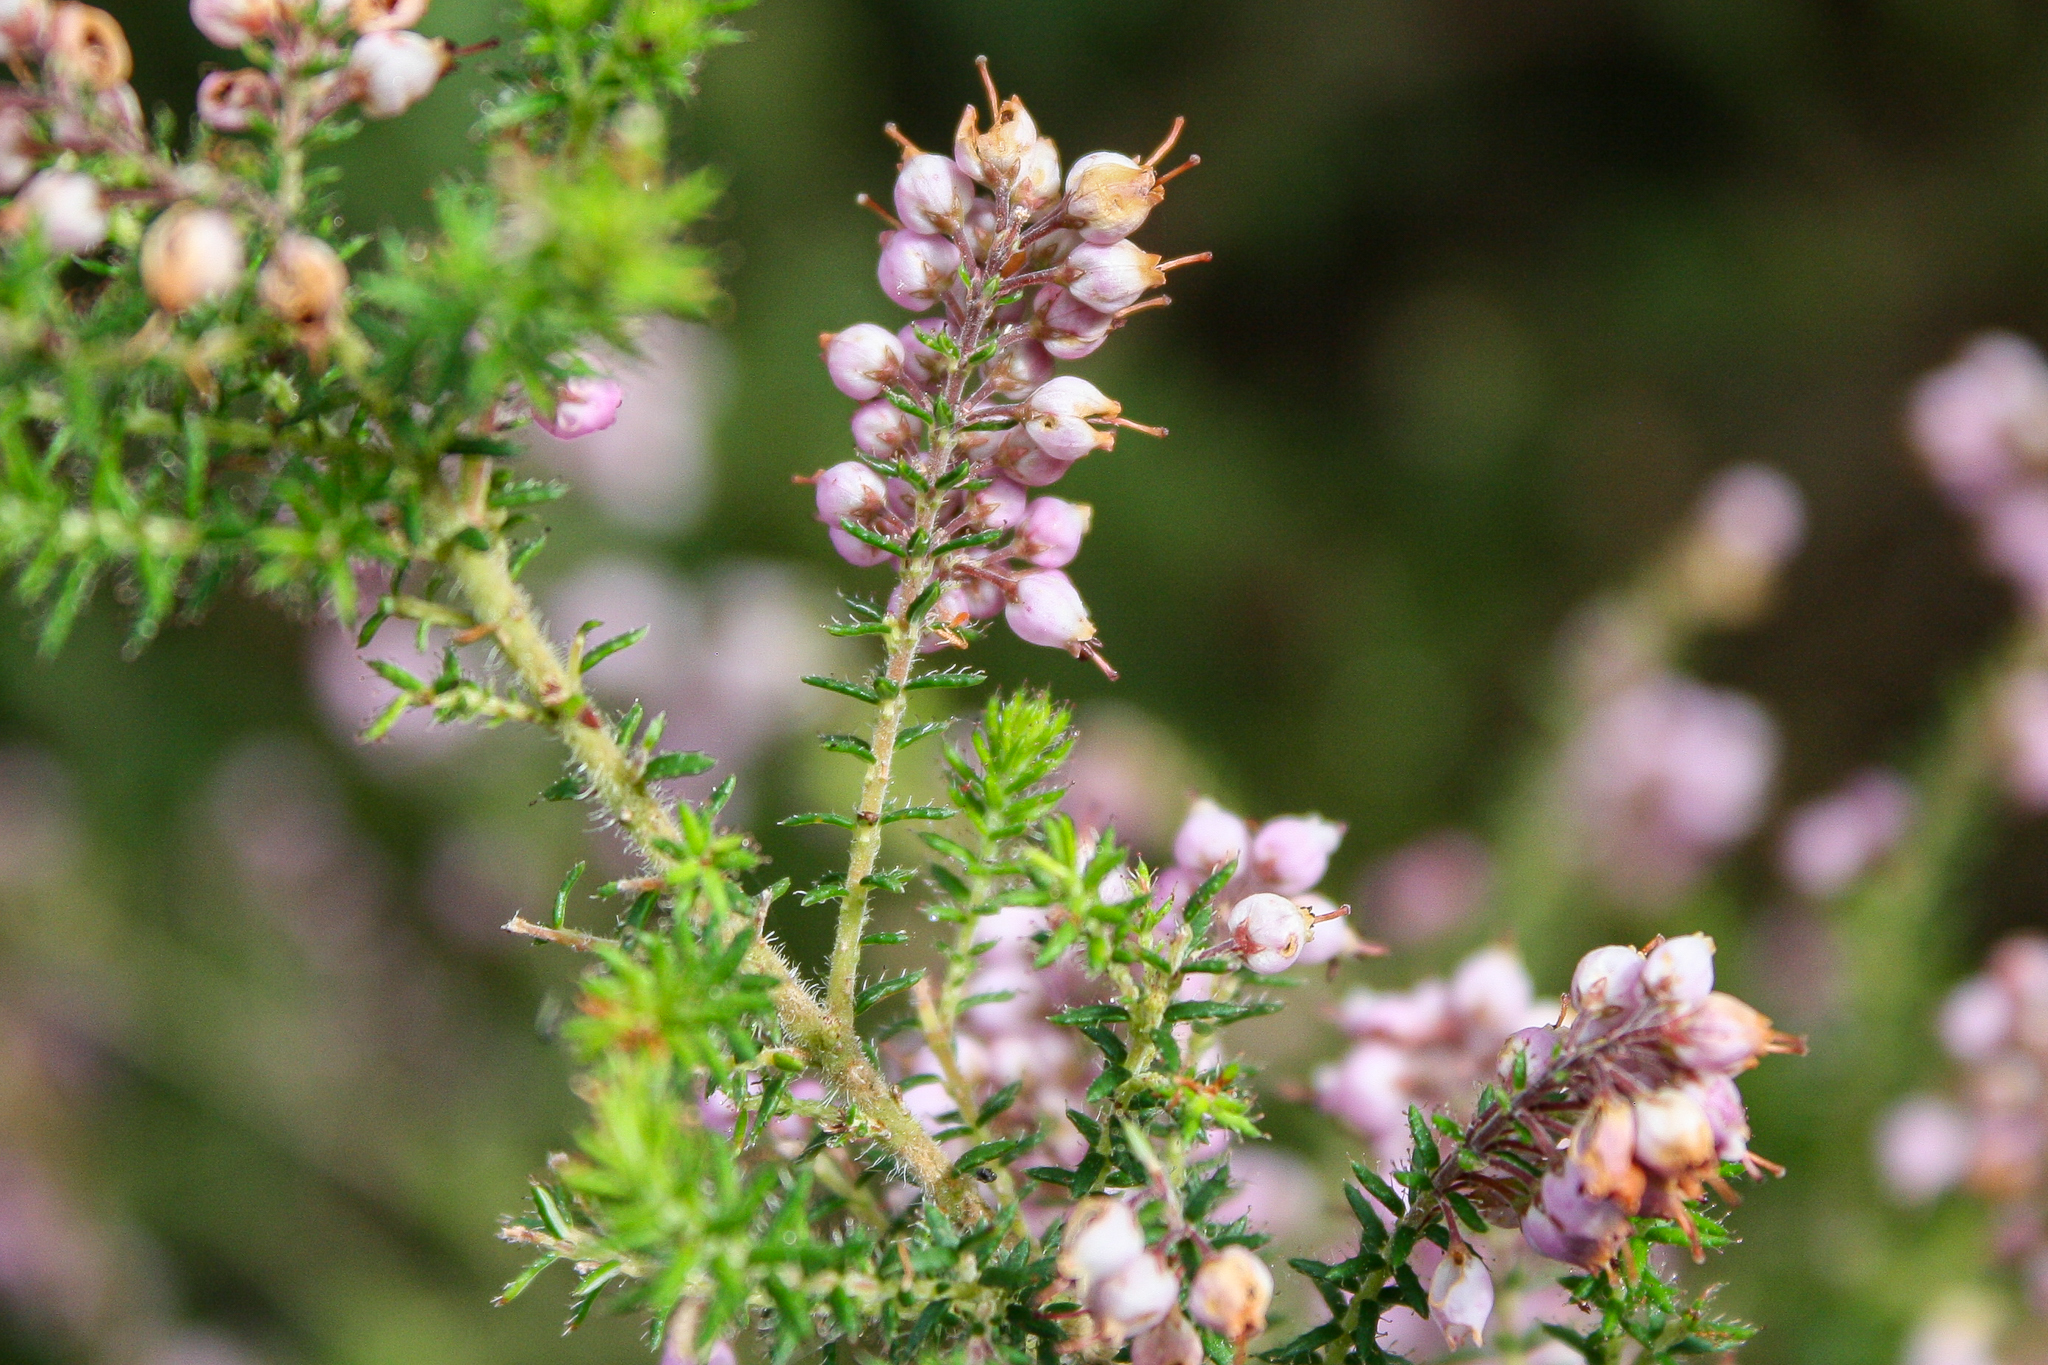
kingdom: Plantae
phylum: Tracheophyta
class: Magnoliopsida
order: Ericales
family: Ericaceae
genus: Erica
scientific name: Erica hirta
